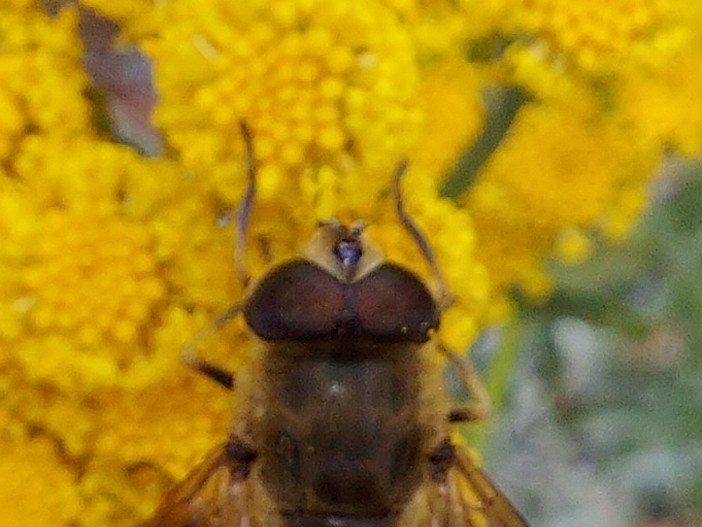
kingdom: Animalia
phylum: Arthropoda
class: Insecta
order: Diptera
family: Syrphidae
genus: Eristalis
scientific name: Eristalis tenax
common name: Drone fly
